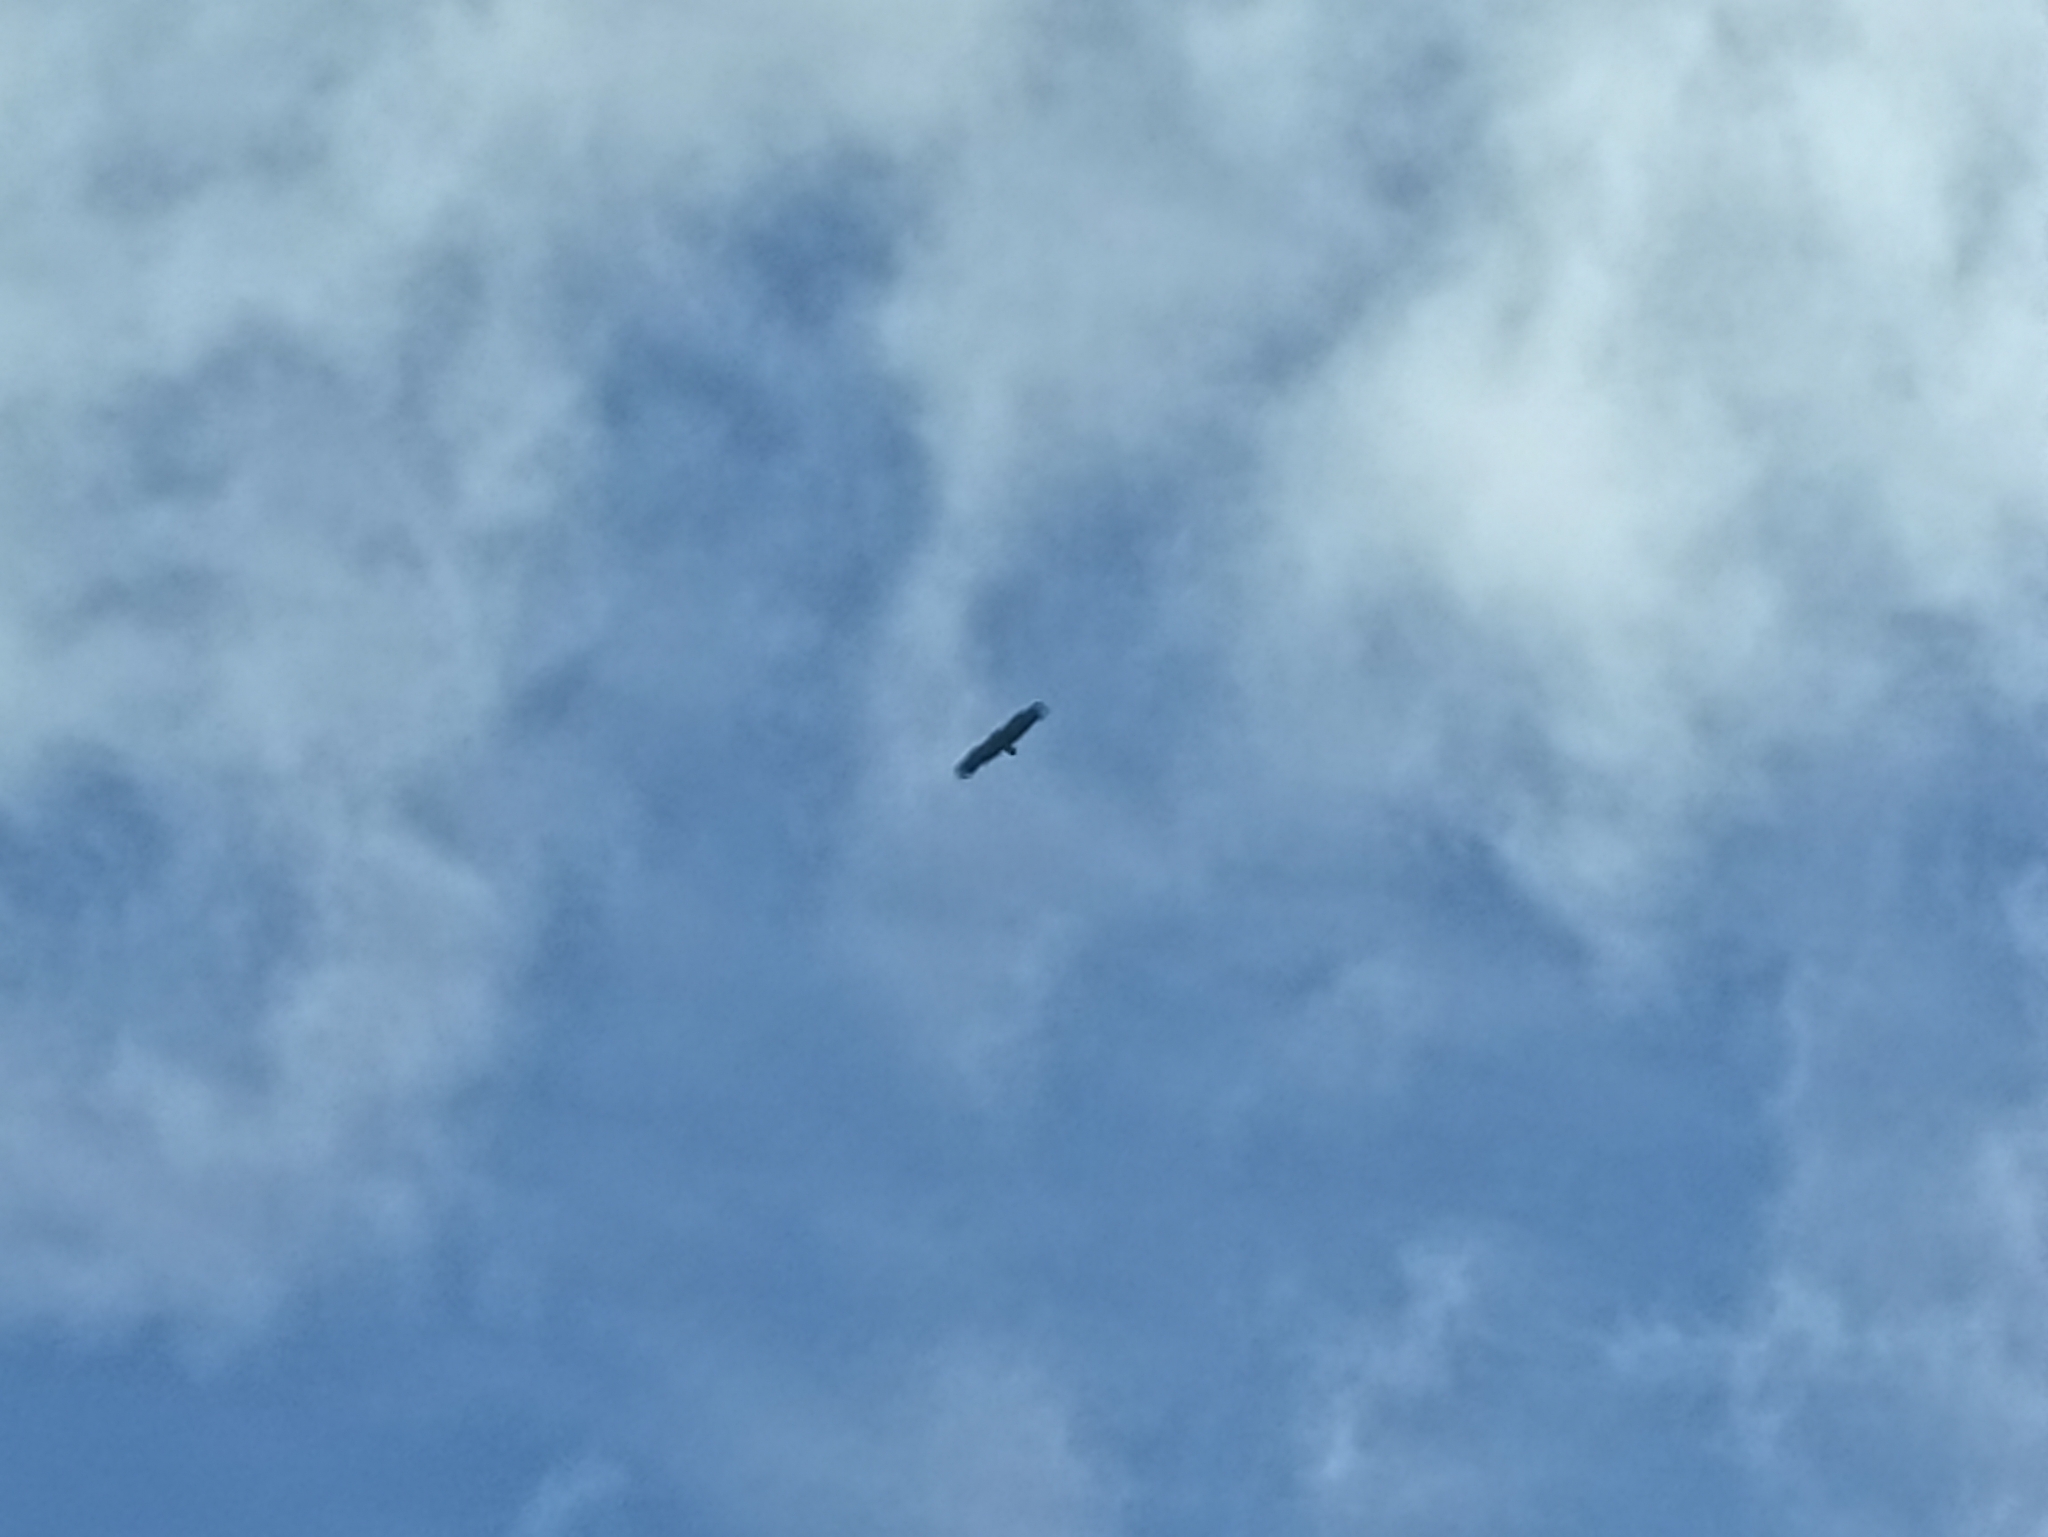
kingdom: Animalia
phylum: Chordata
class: Aves
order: Accipitriformes
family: Accipitridae
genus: Aegypius
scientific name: Aegypius monachus
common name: Cinereous vulture
